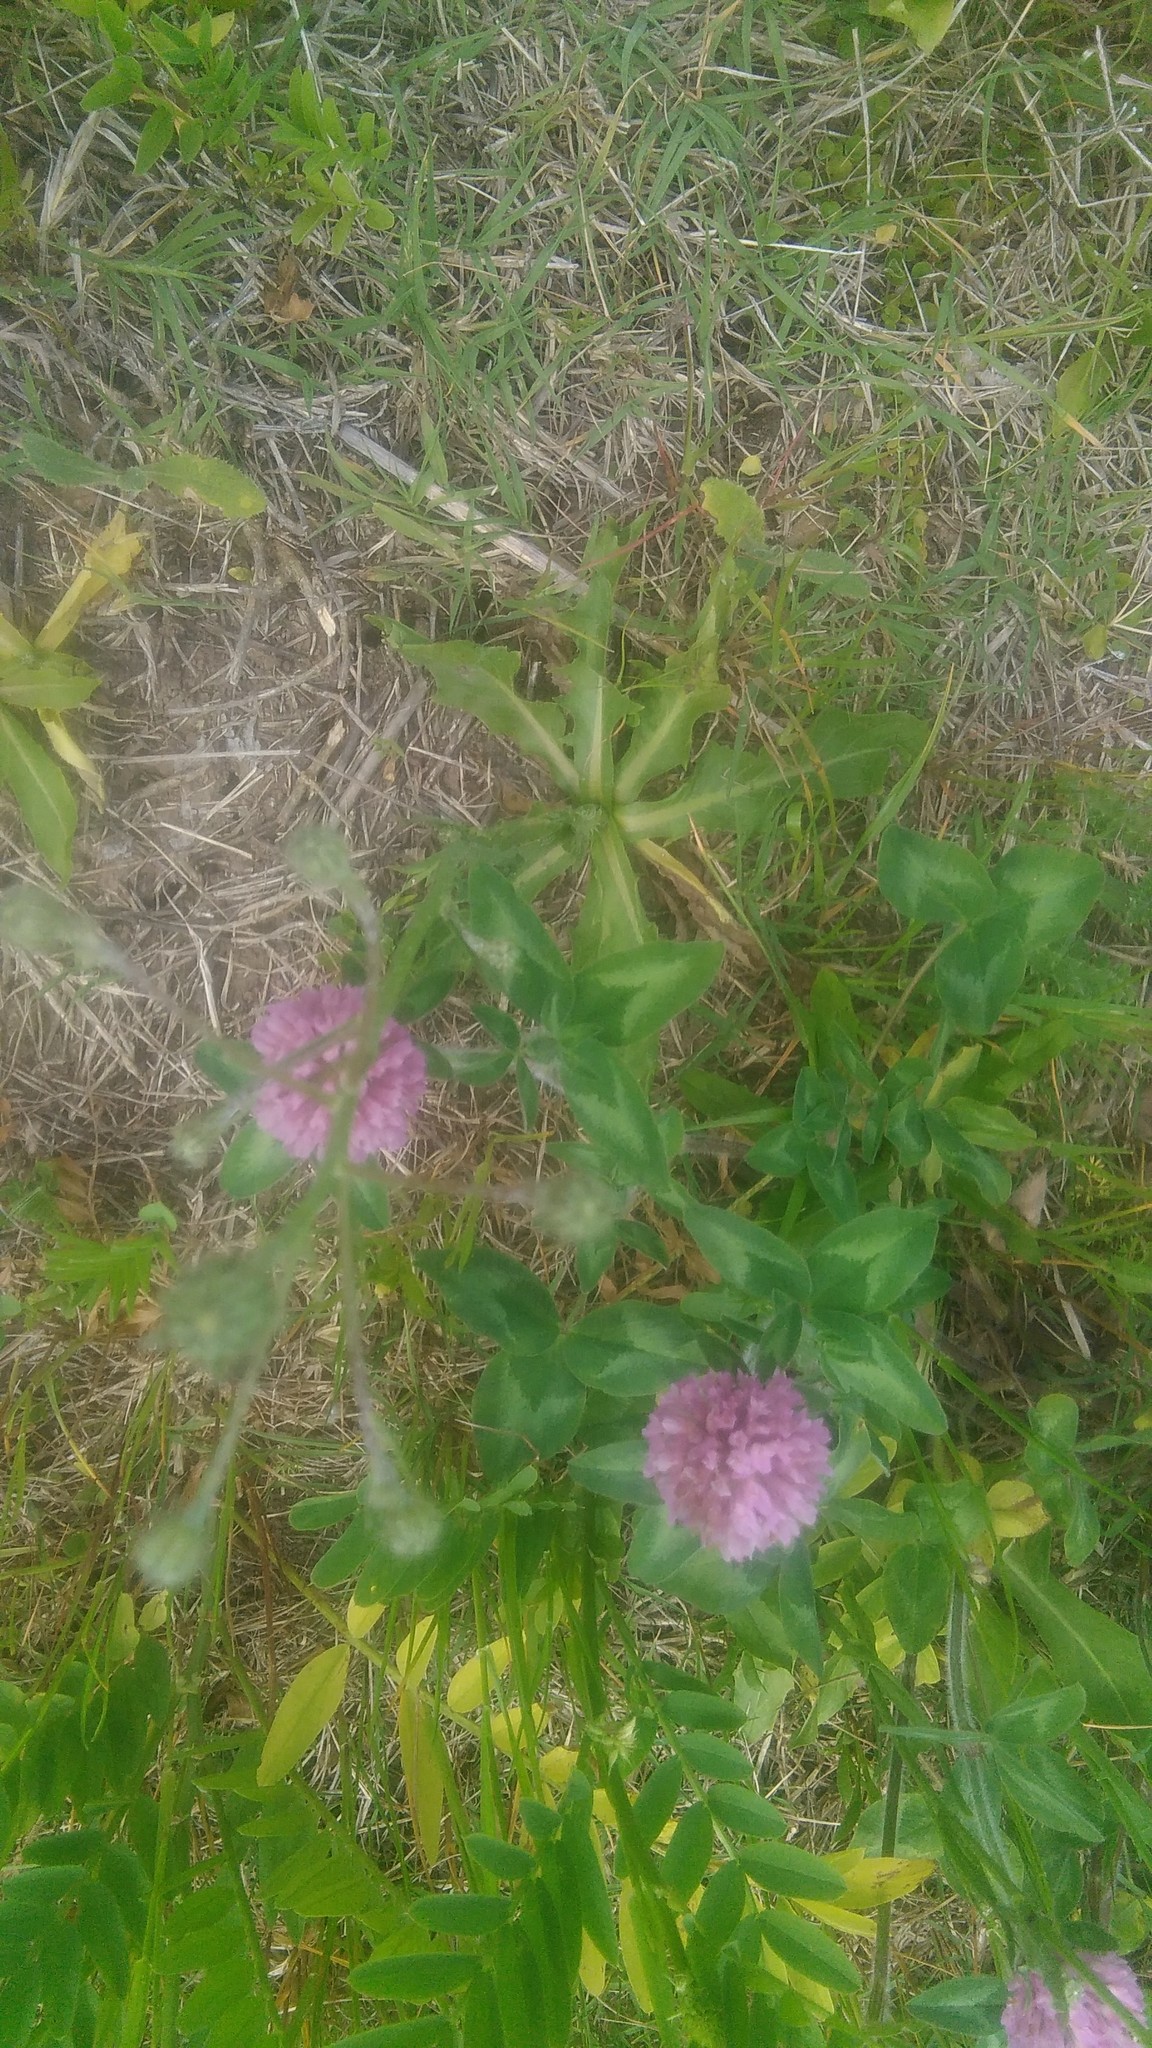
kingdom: Plantae
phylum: Tracheophyta
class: Magnoliopsida
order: Fabales
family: Fabaceae
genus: Trifolium
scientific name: Trifolium pratense
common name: Red clover
